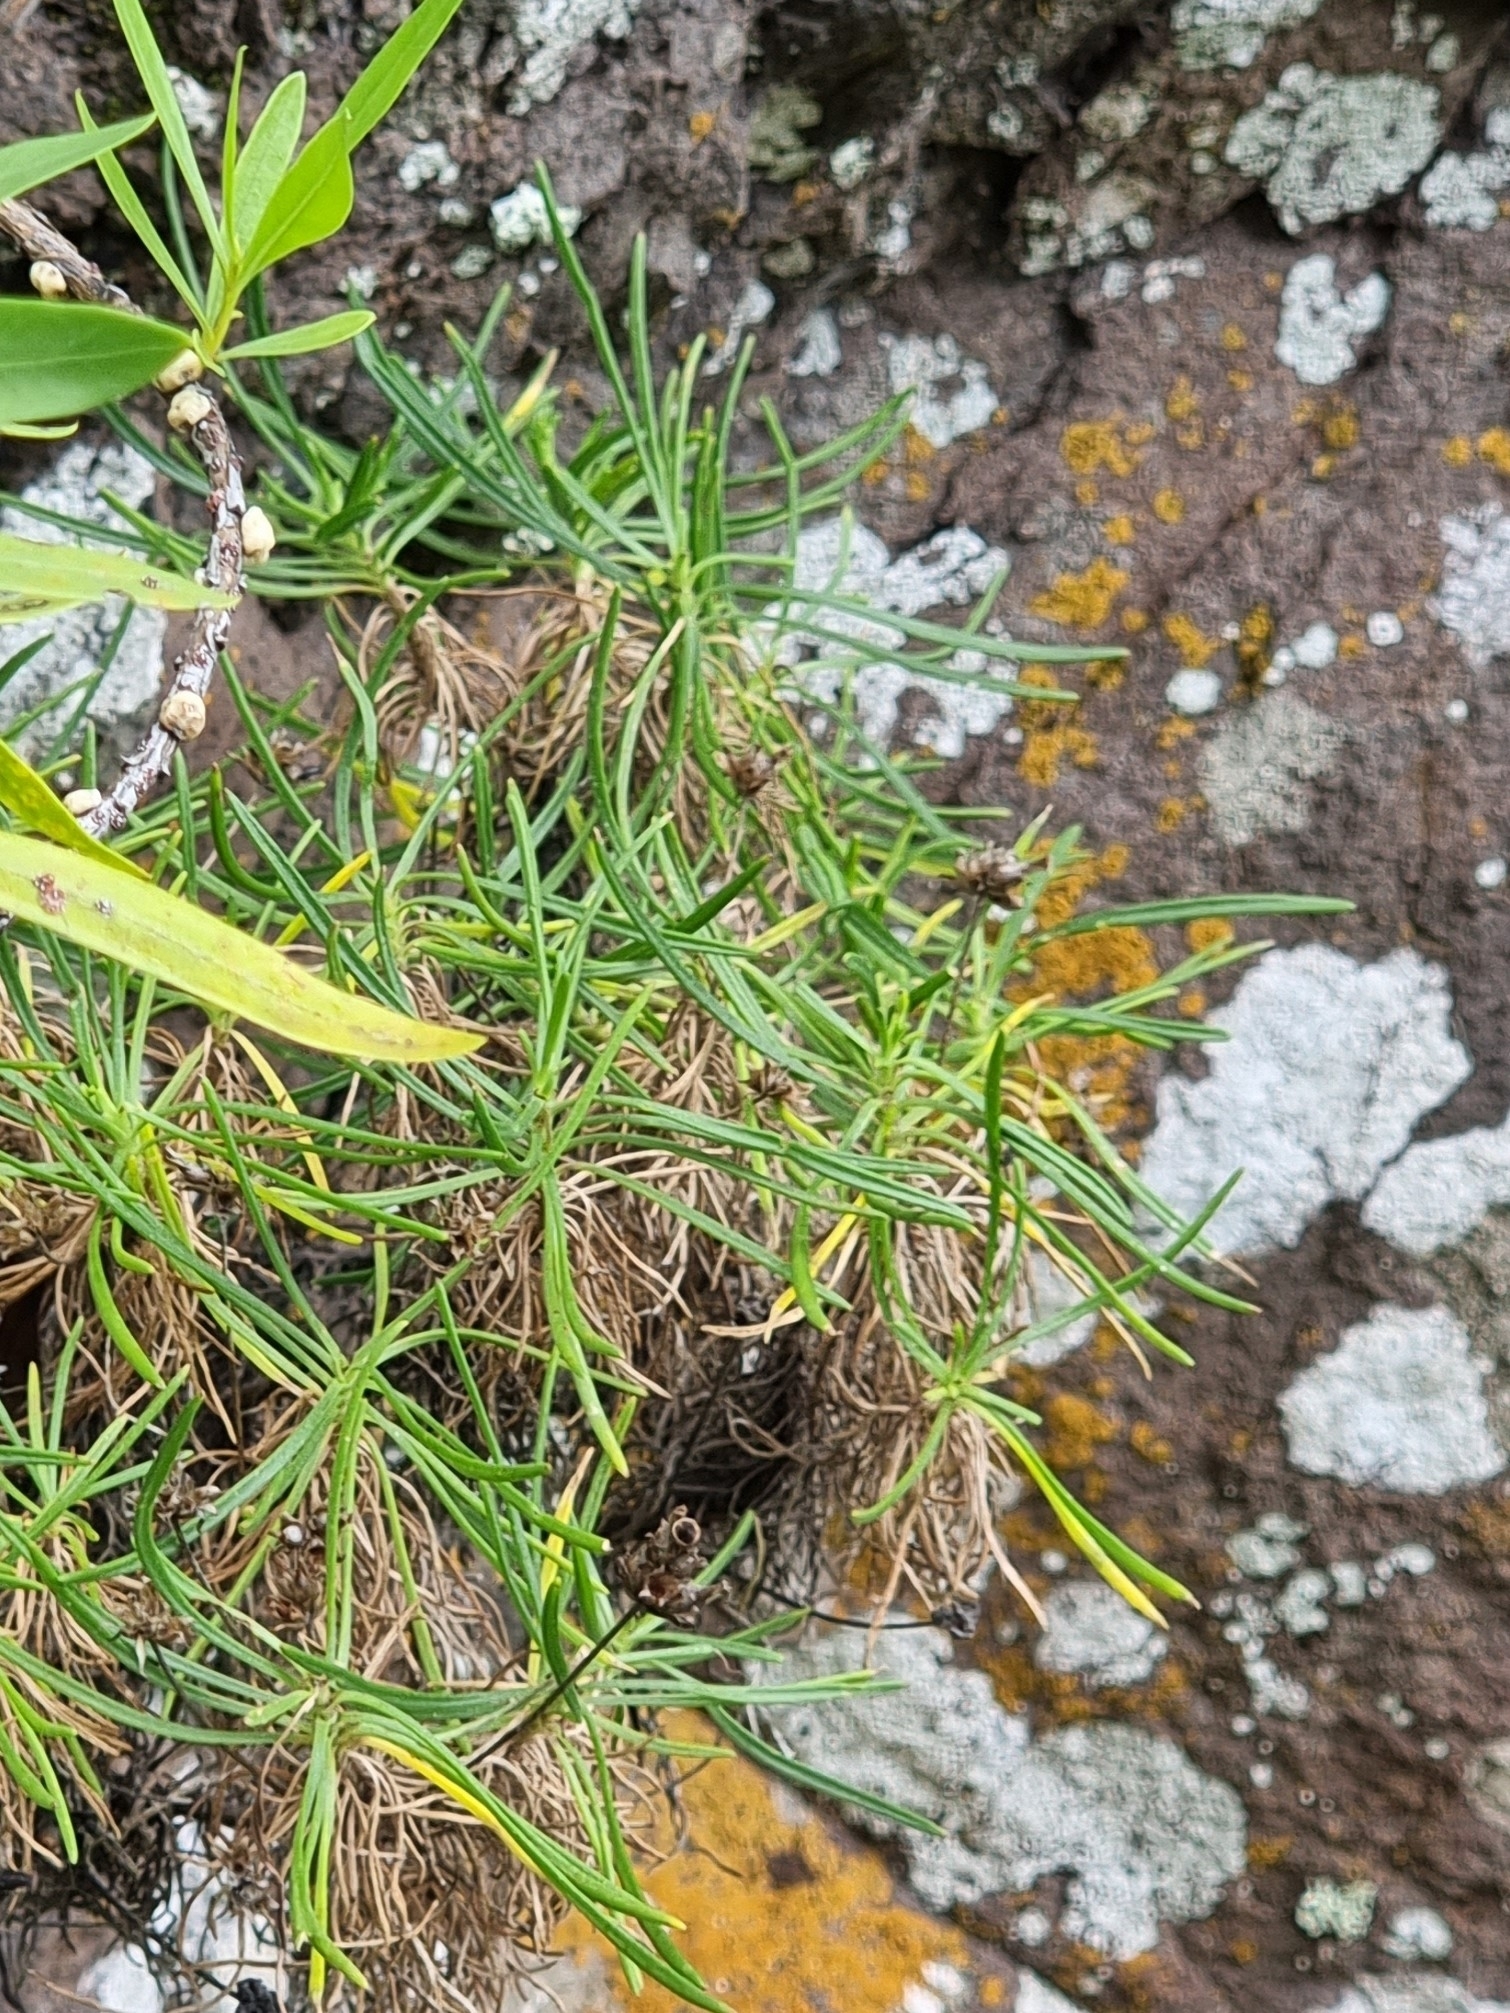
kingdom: Plantae
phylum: Tracheophyta
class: Magnoliopsida
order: Lamiales
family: Plantaginaceae
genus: Plantago
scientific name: Plantago arborescens
